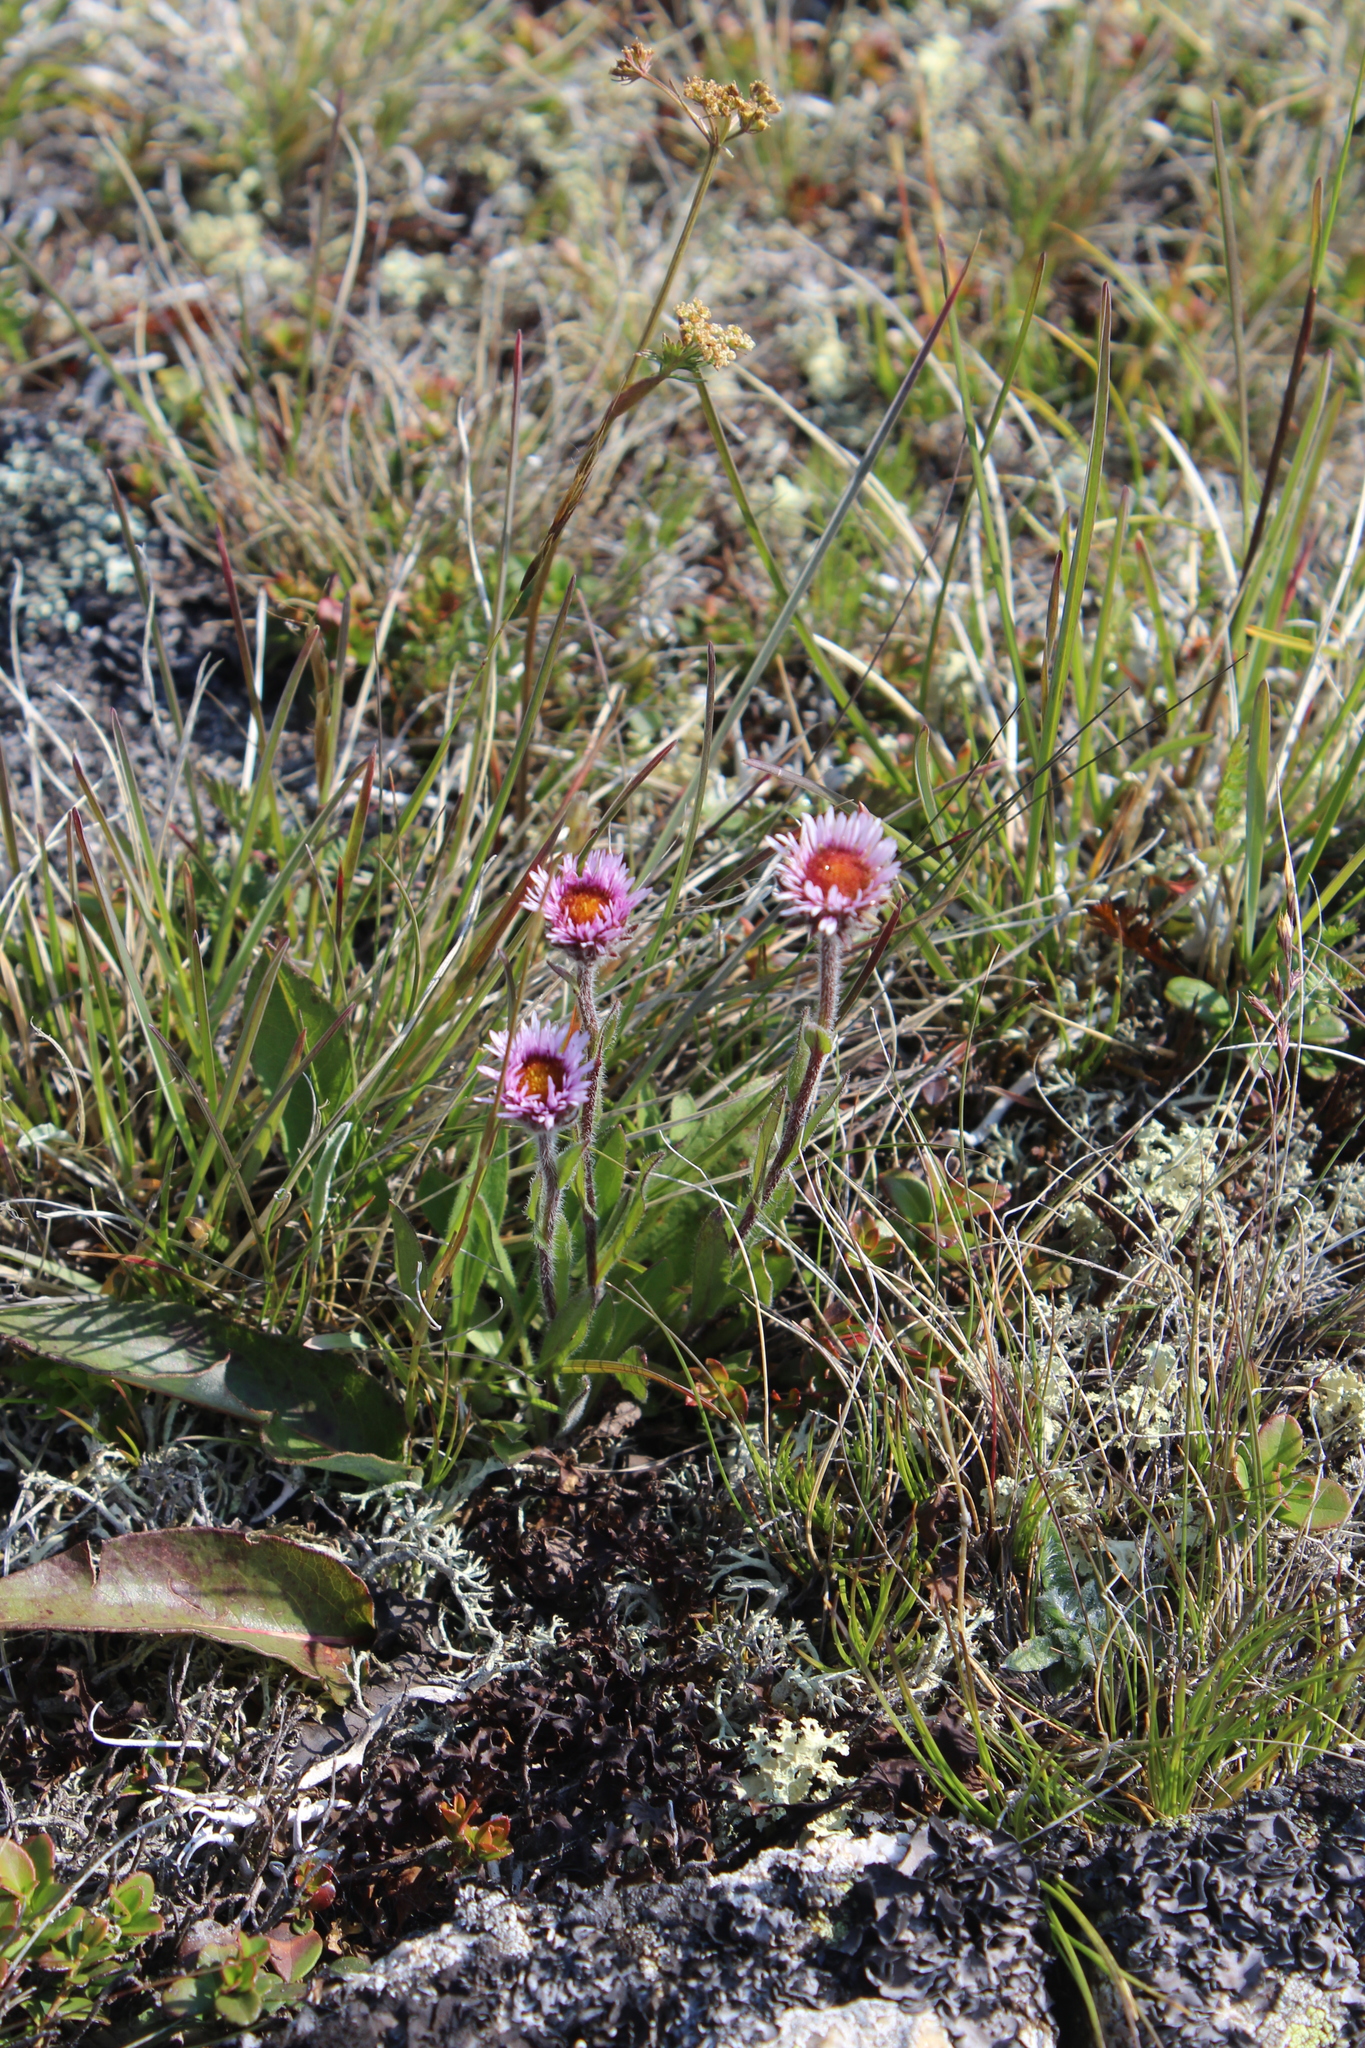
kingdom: Plantae
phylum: Tracheophyta
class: Magnoliopsida
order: Asterales
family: Asteraceae
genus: Erigeron
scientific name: Erigeron uniflorus
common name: Northern daisy
